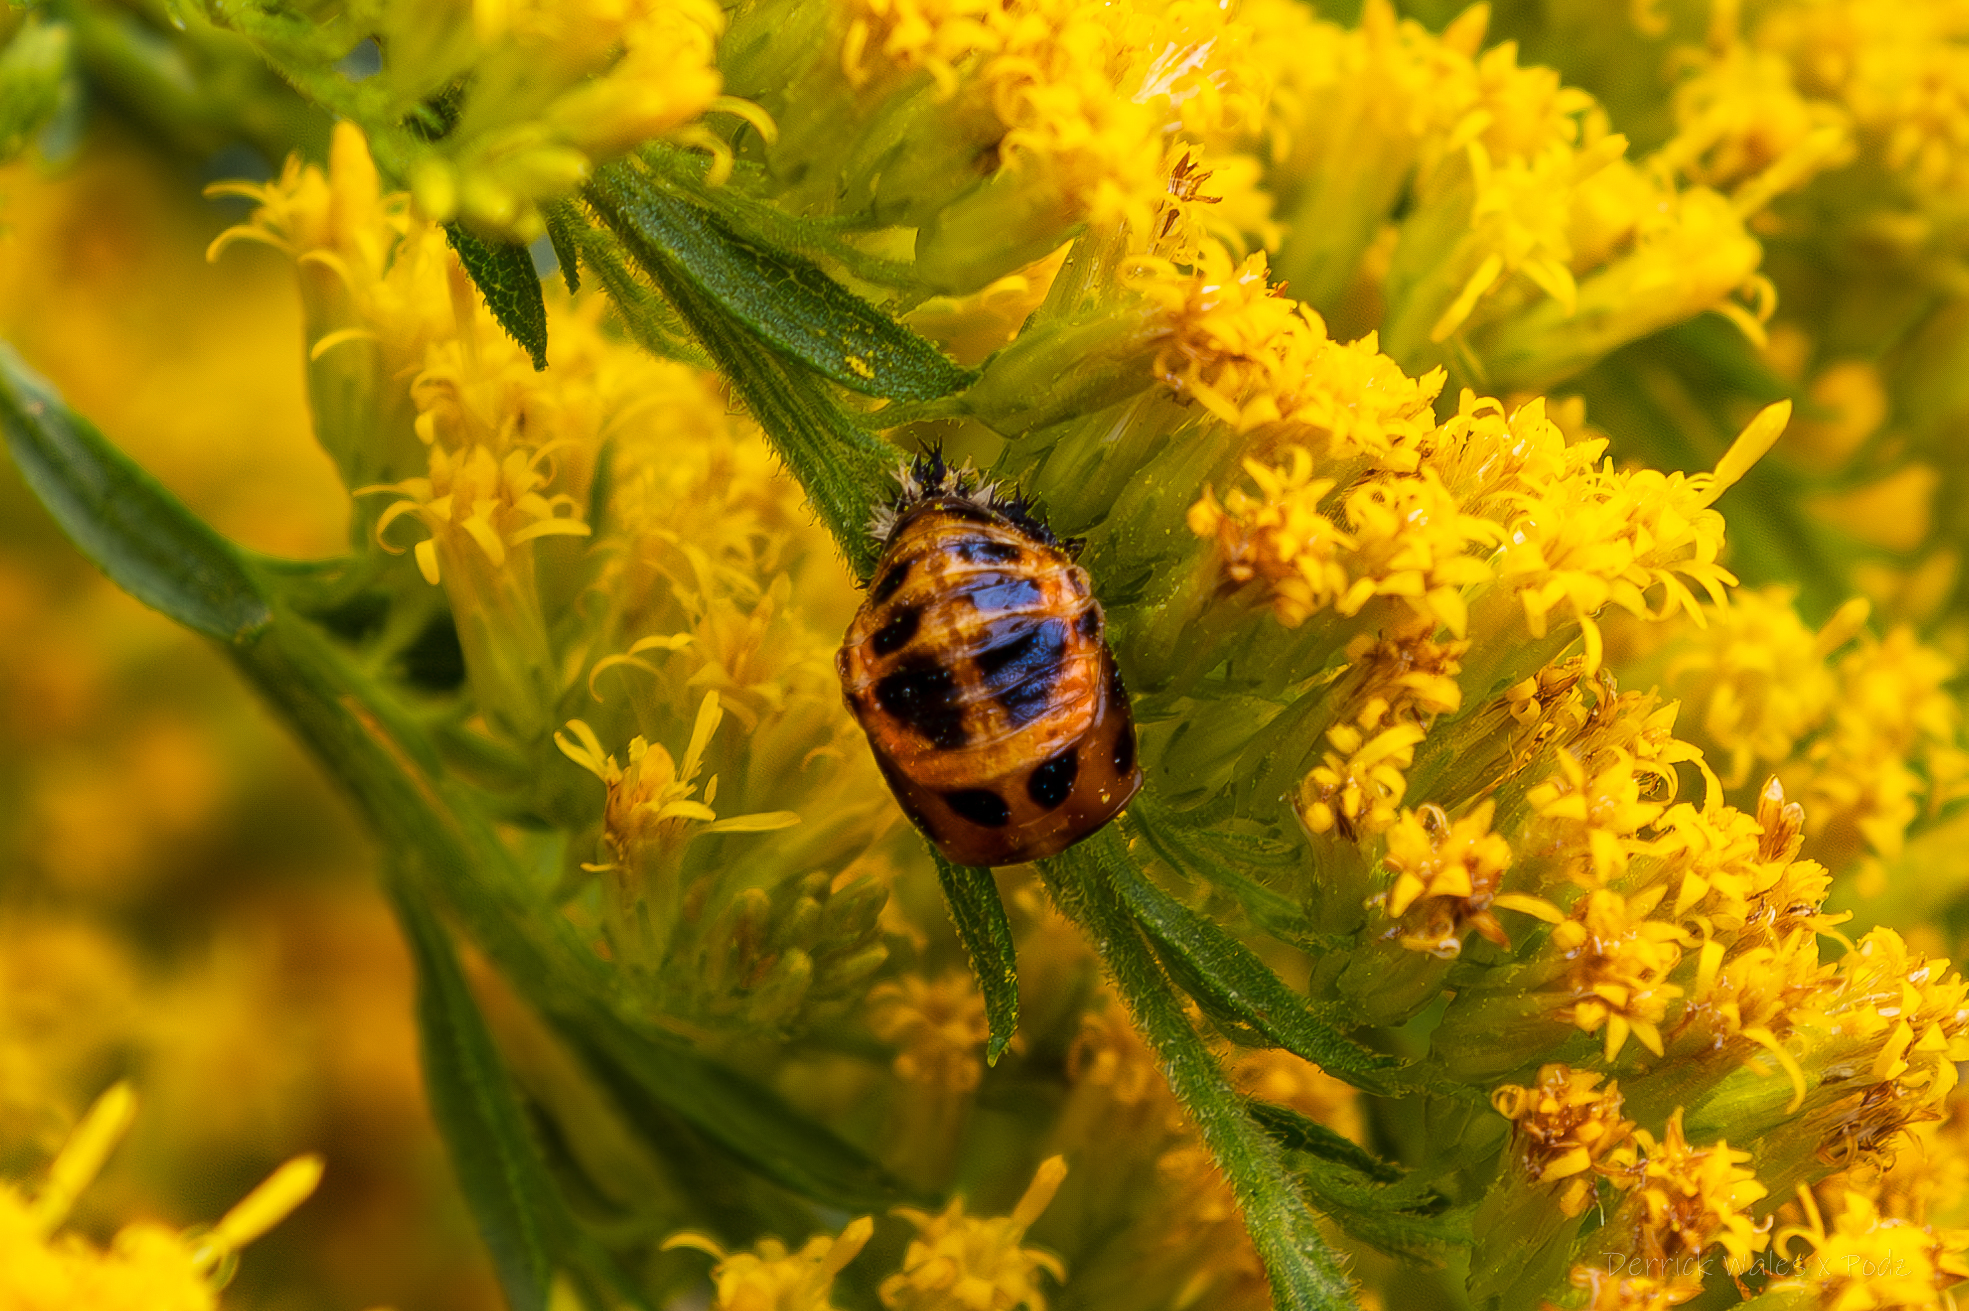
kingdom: Animalia
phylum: Arthropoda
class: Insecta
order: Coleoptera
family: Coccinellidae
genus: Harmonia
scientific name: Harmonia axyridis
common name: Harlequin ladybird
